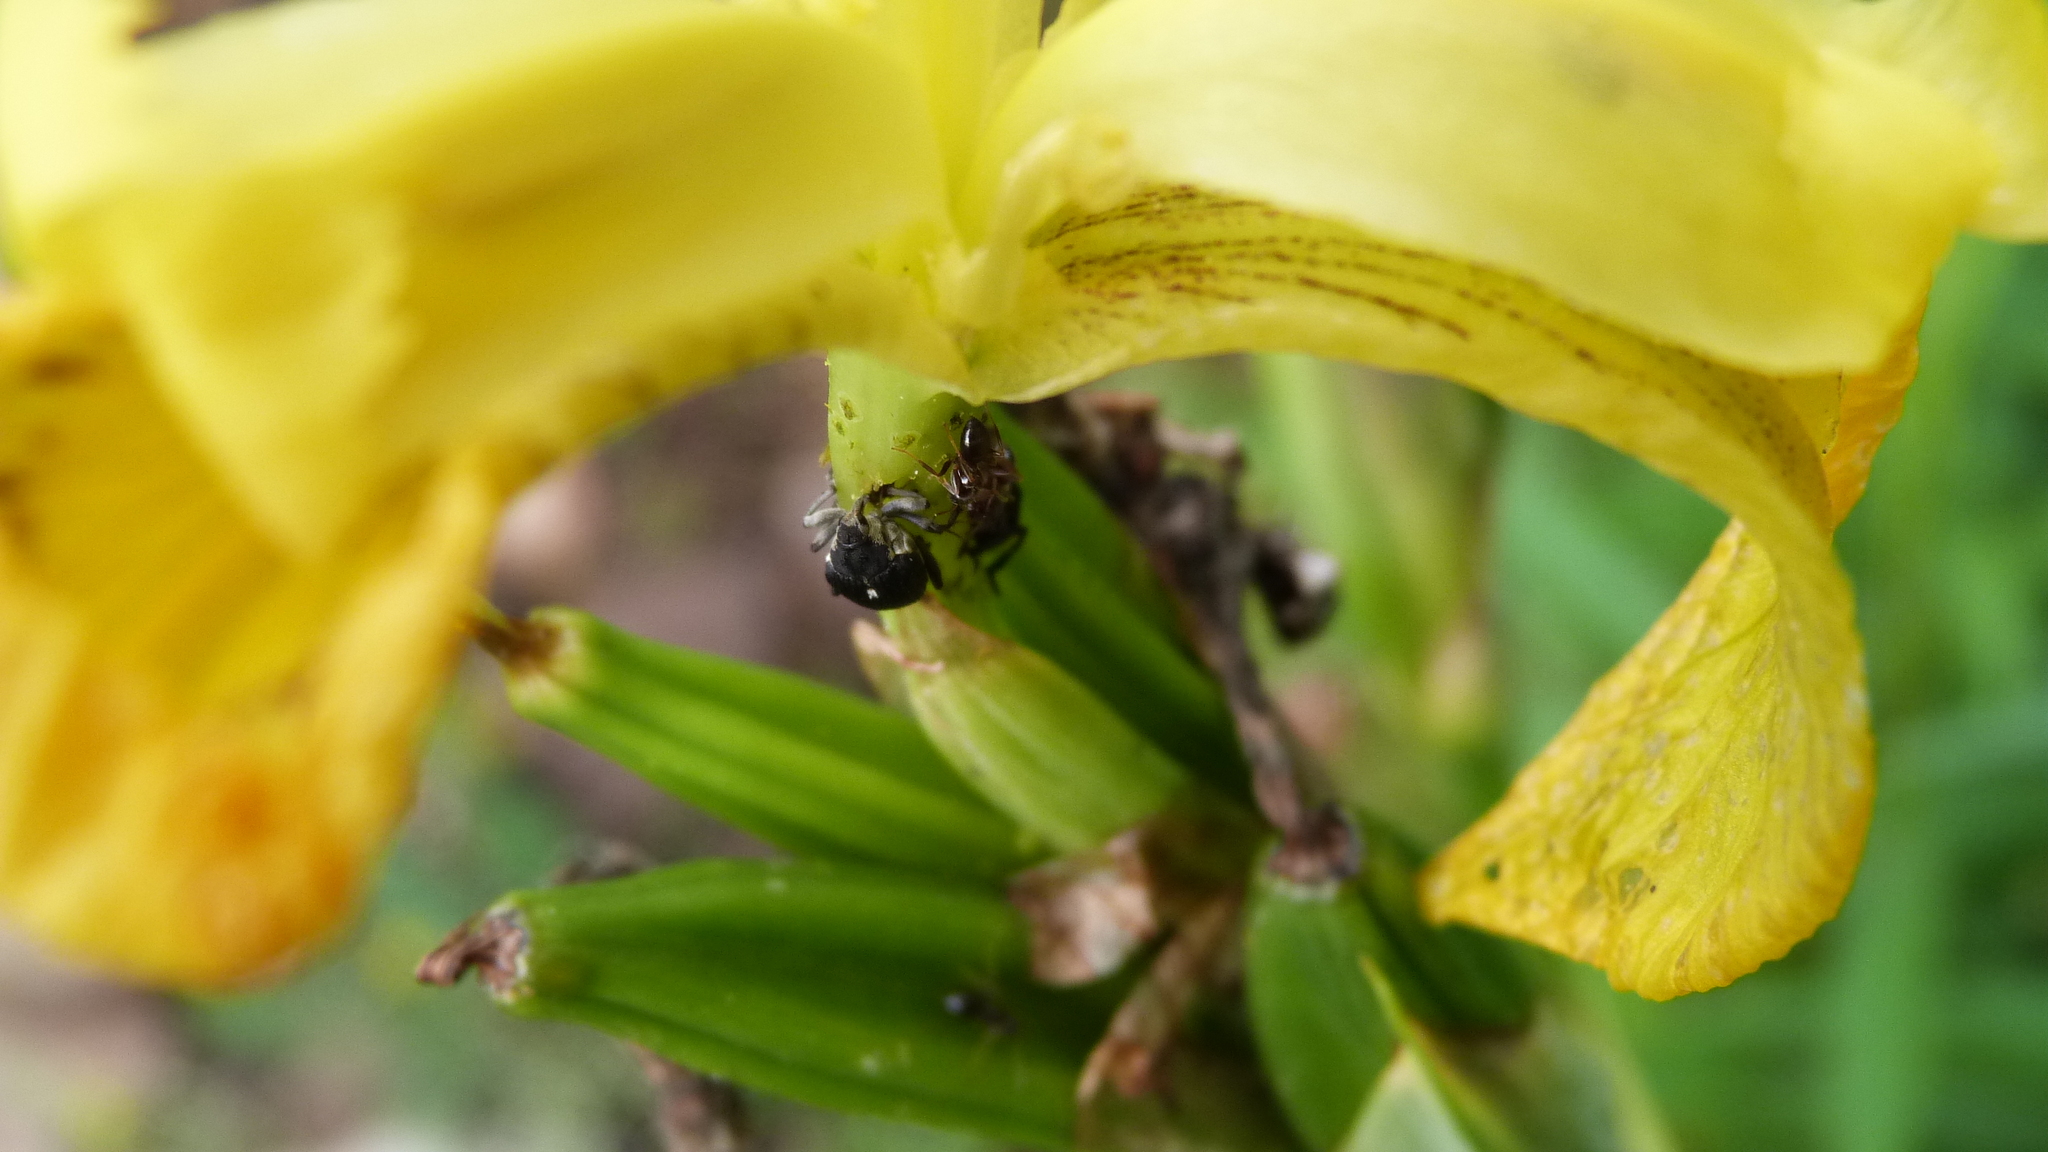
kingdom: Animalia
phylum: Arthropoda
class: Insecta
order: Coleoptera
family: Curculionidae
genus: Mononychus
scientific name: Mononychus punctumalbum
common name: Iris weevil
